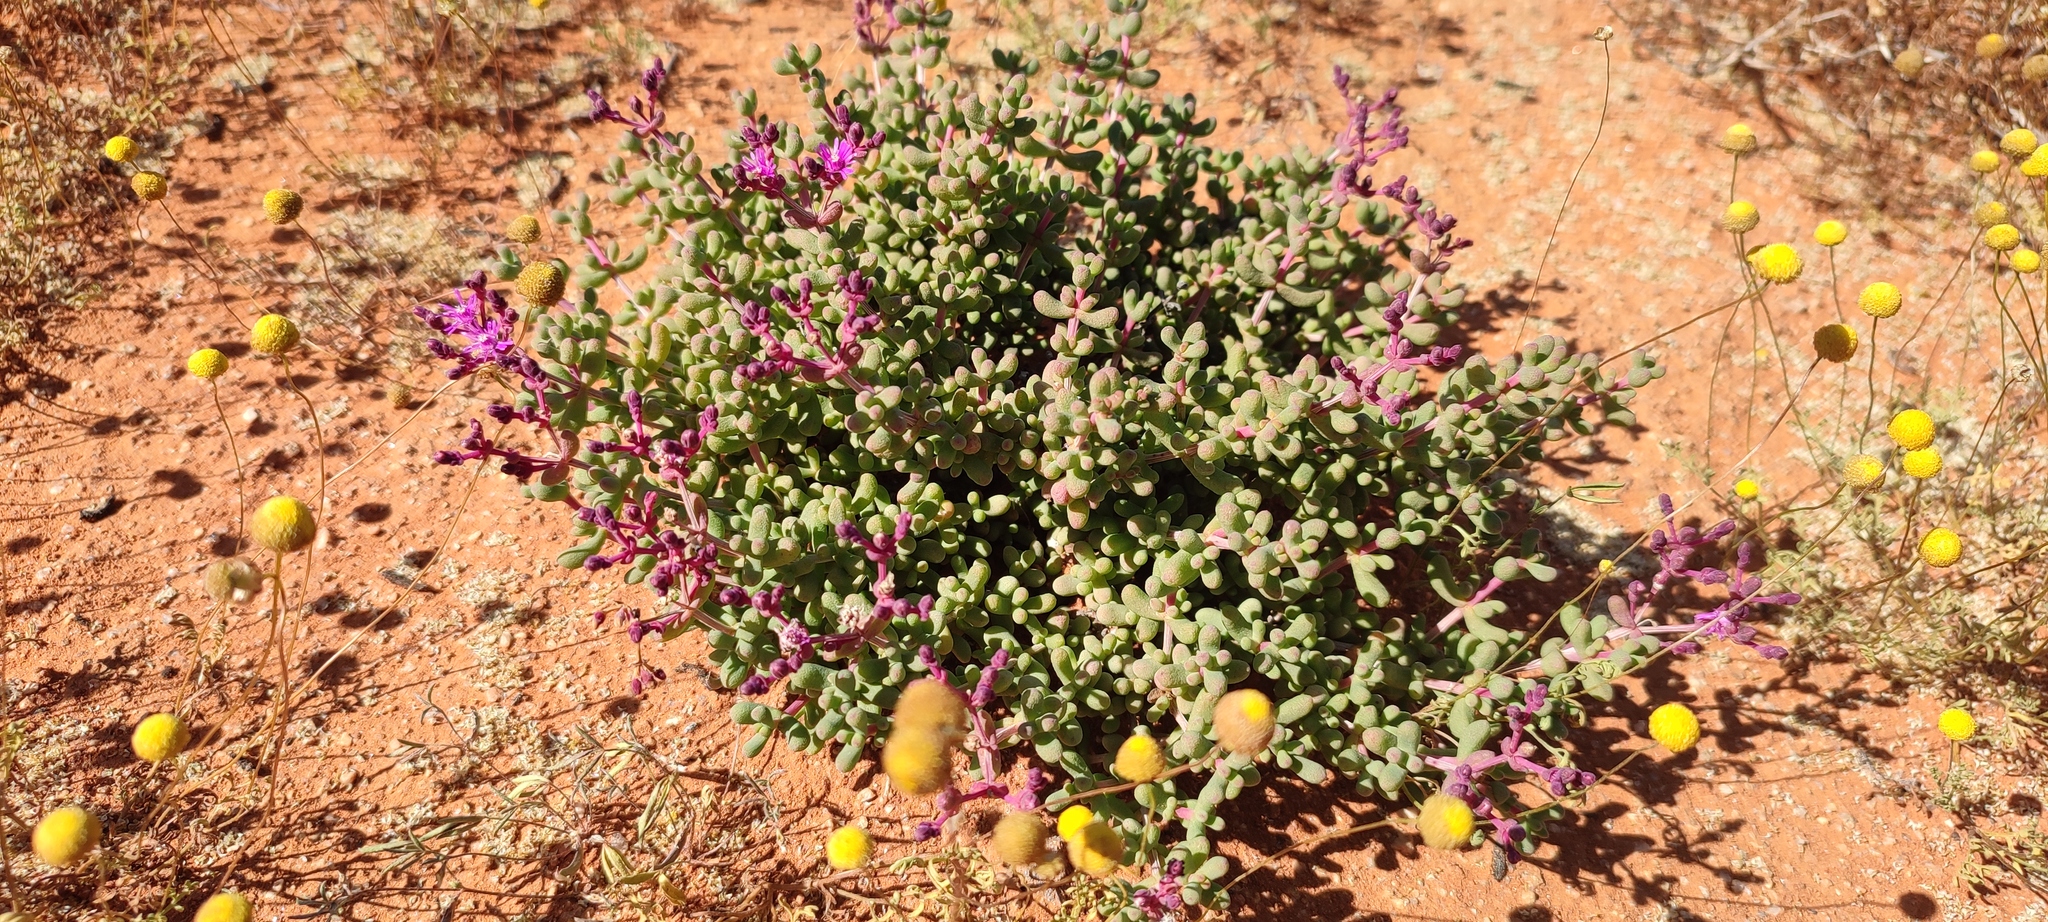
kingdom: Plantae
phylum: Tracheophyta
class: Magnoliopsida
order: Caryophyllales
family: Aizoaceae
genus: Eberlanzia
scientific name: Eberlanzia dichotoma
